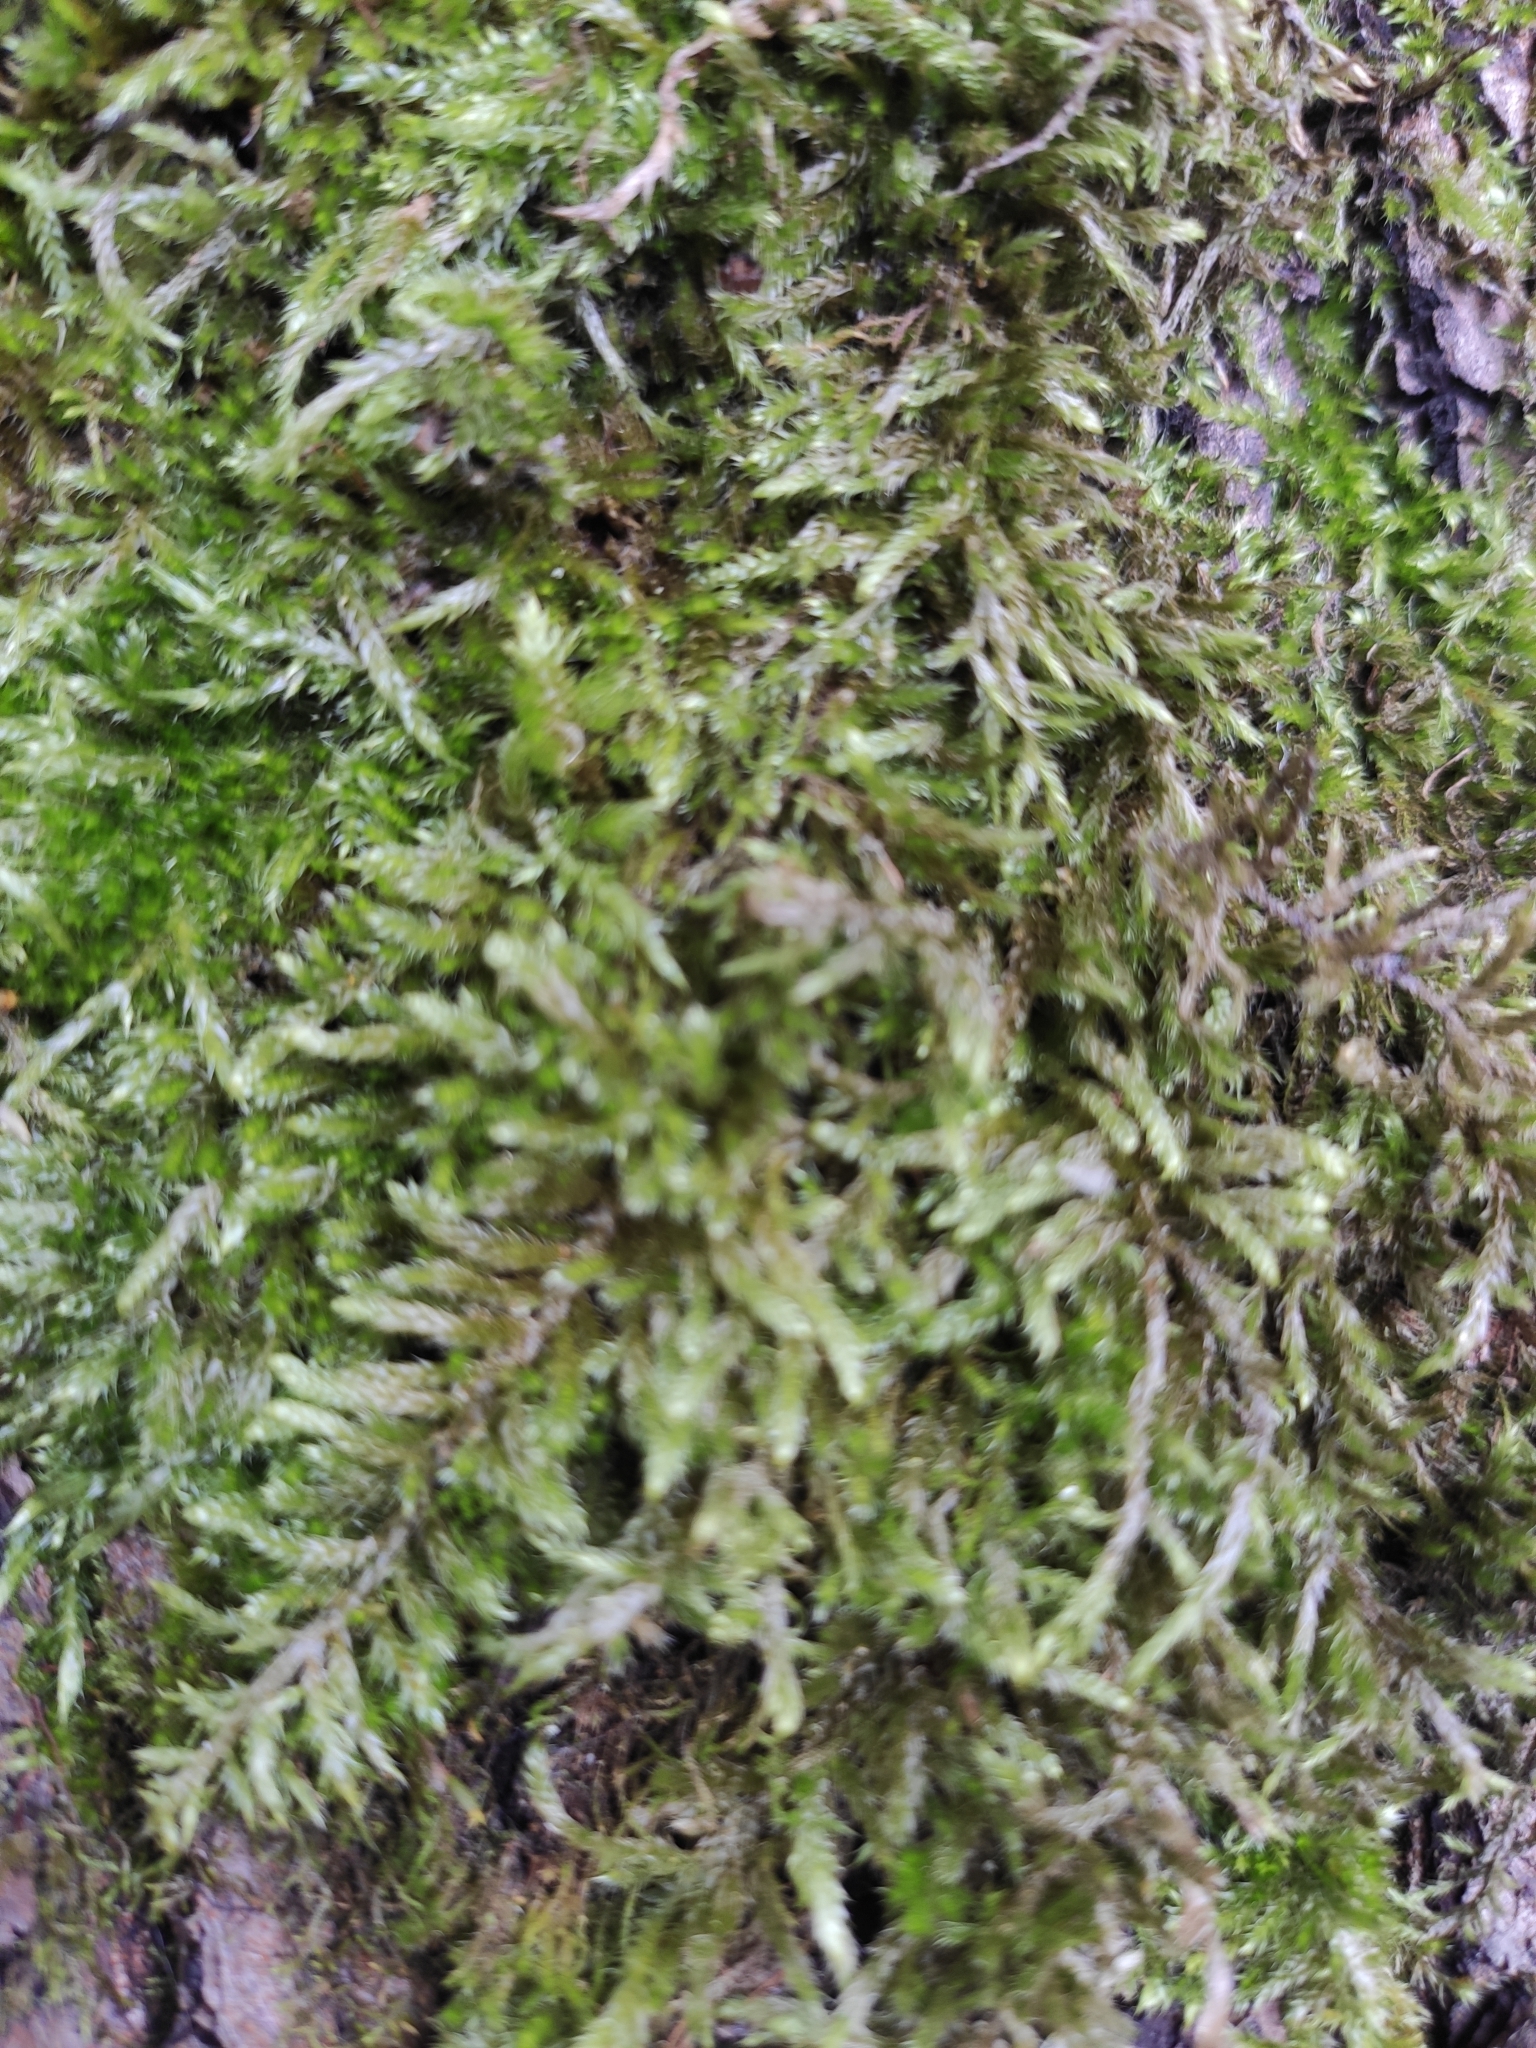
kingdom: Plantae
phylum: Bryophyta
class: Bryopsida
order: Hypnales
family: Hypnaceae
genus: Hypnum
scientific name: Hypnum cupressiforme
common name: Cypress-leaved plait-moss
